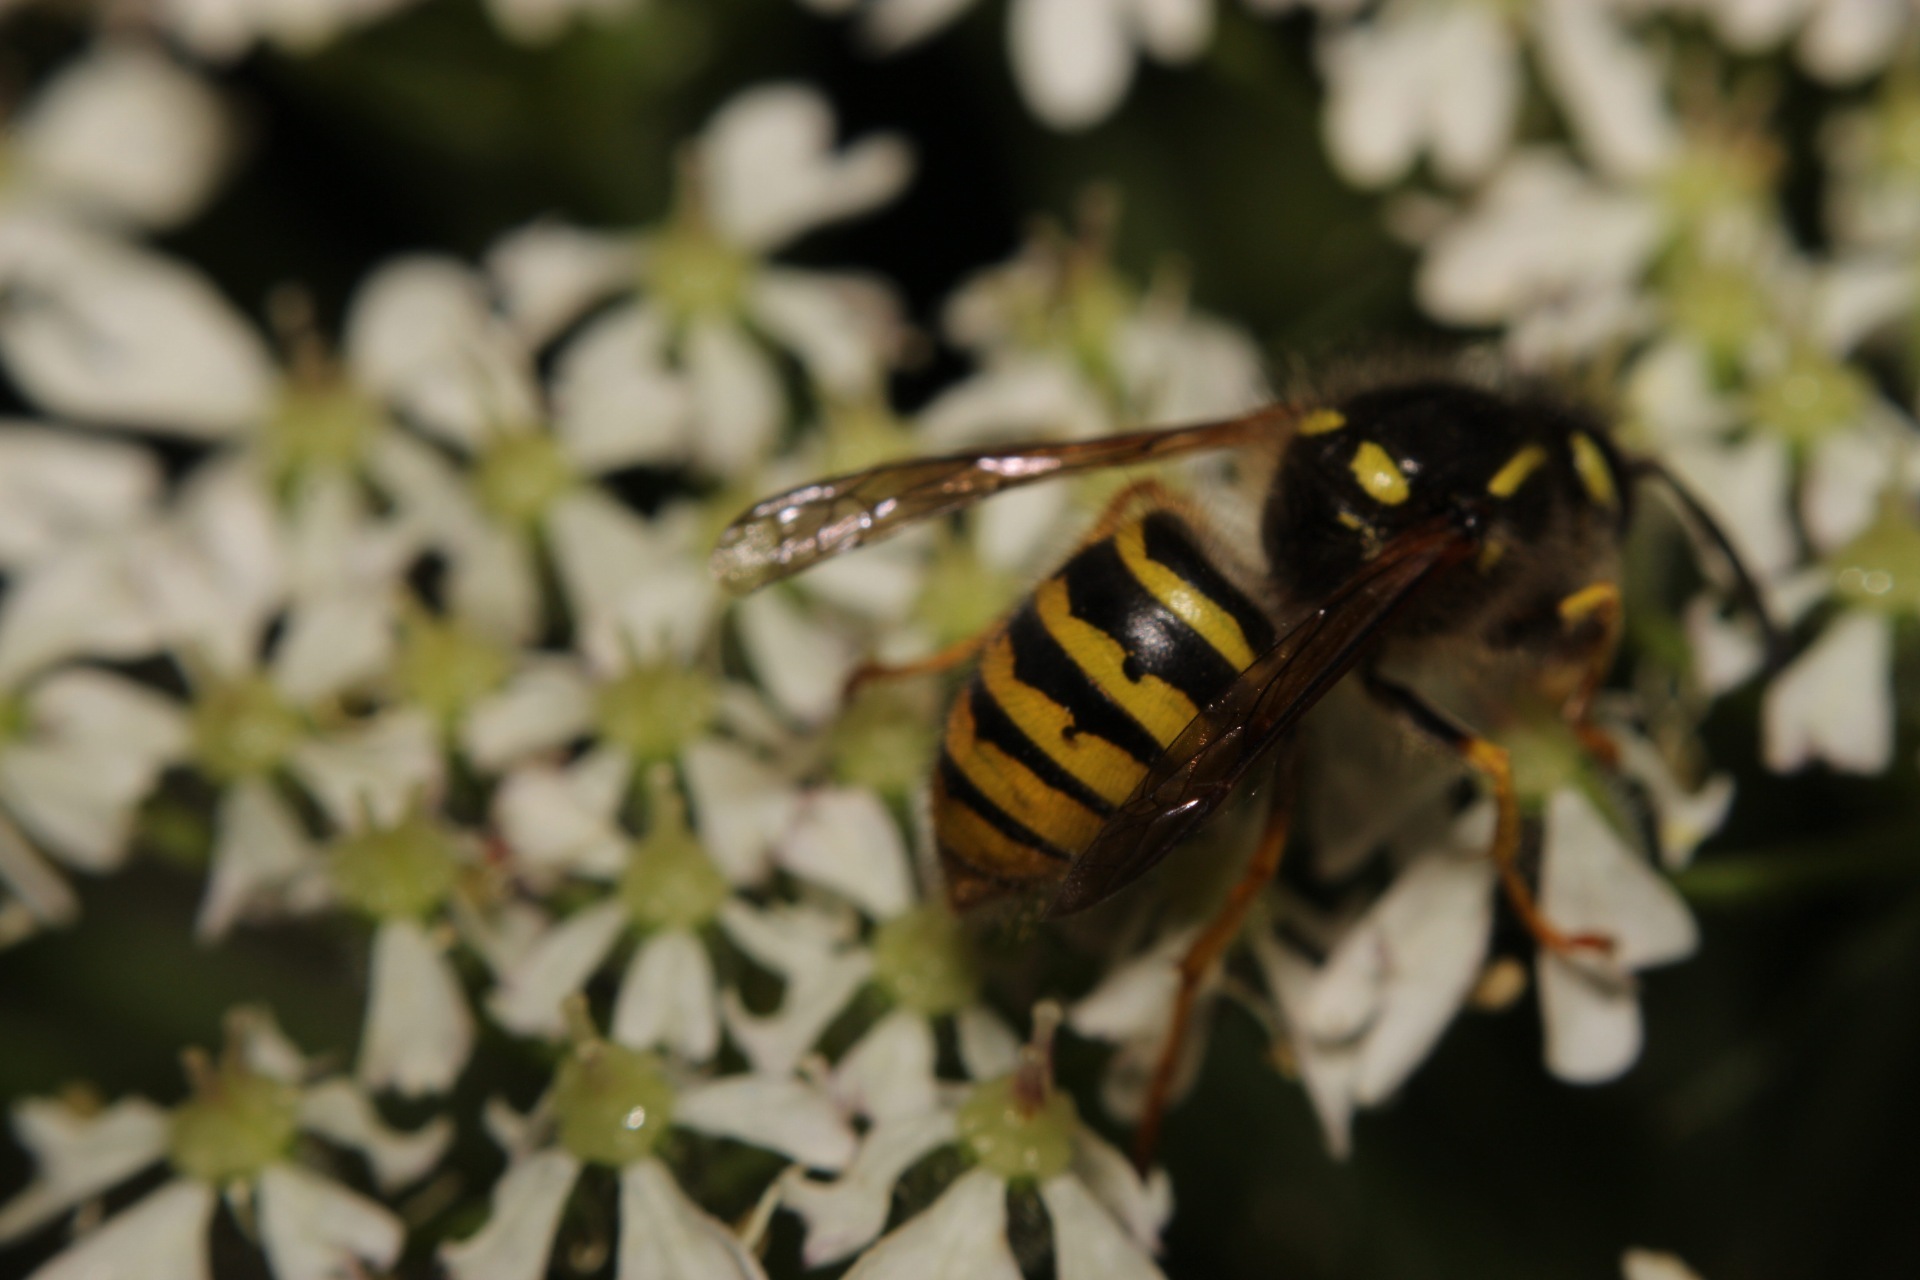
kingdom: Animalia
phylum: Arthropoda
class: Insecta
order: Hymenoptera
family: Vespidae
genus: Dolichovespula
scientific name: Dolichovespula sylvestris
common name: Tree wasp
